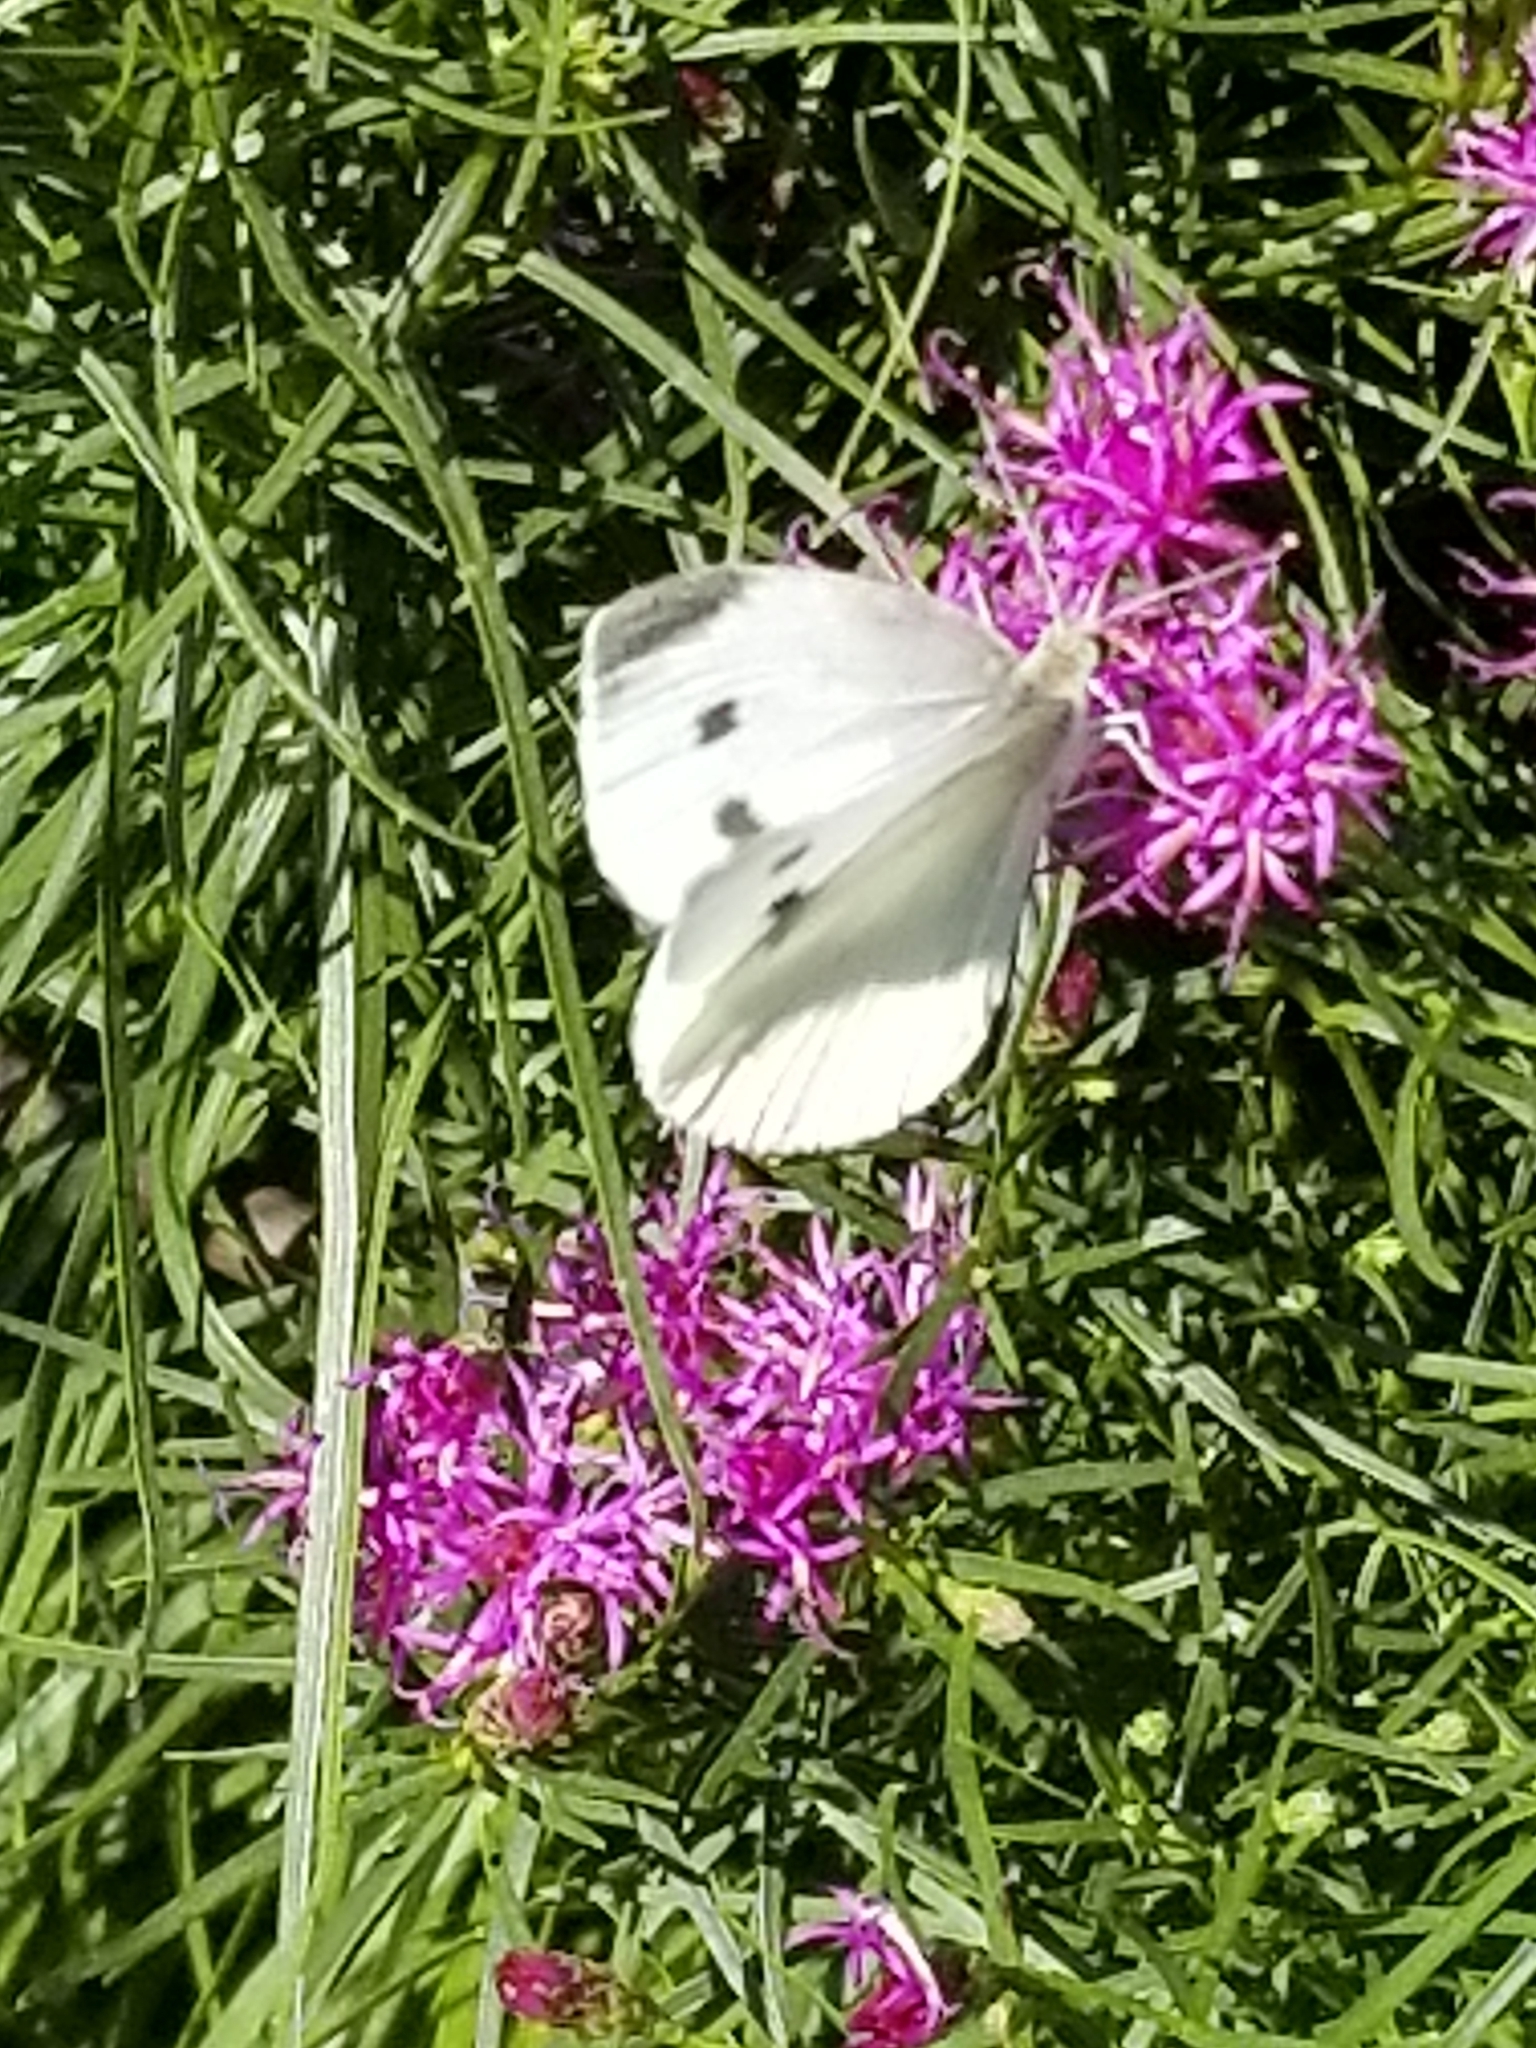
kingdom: Animalia
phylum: Arthropoda
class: Insecta
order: Lepidoptera
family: Pieridae
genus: Pieris
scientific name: Pieris rapae
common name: Small white
